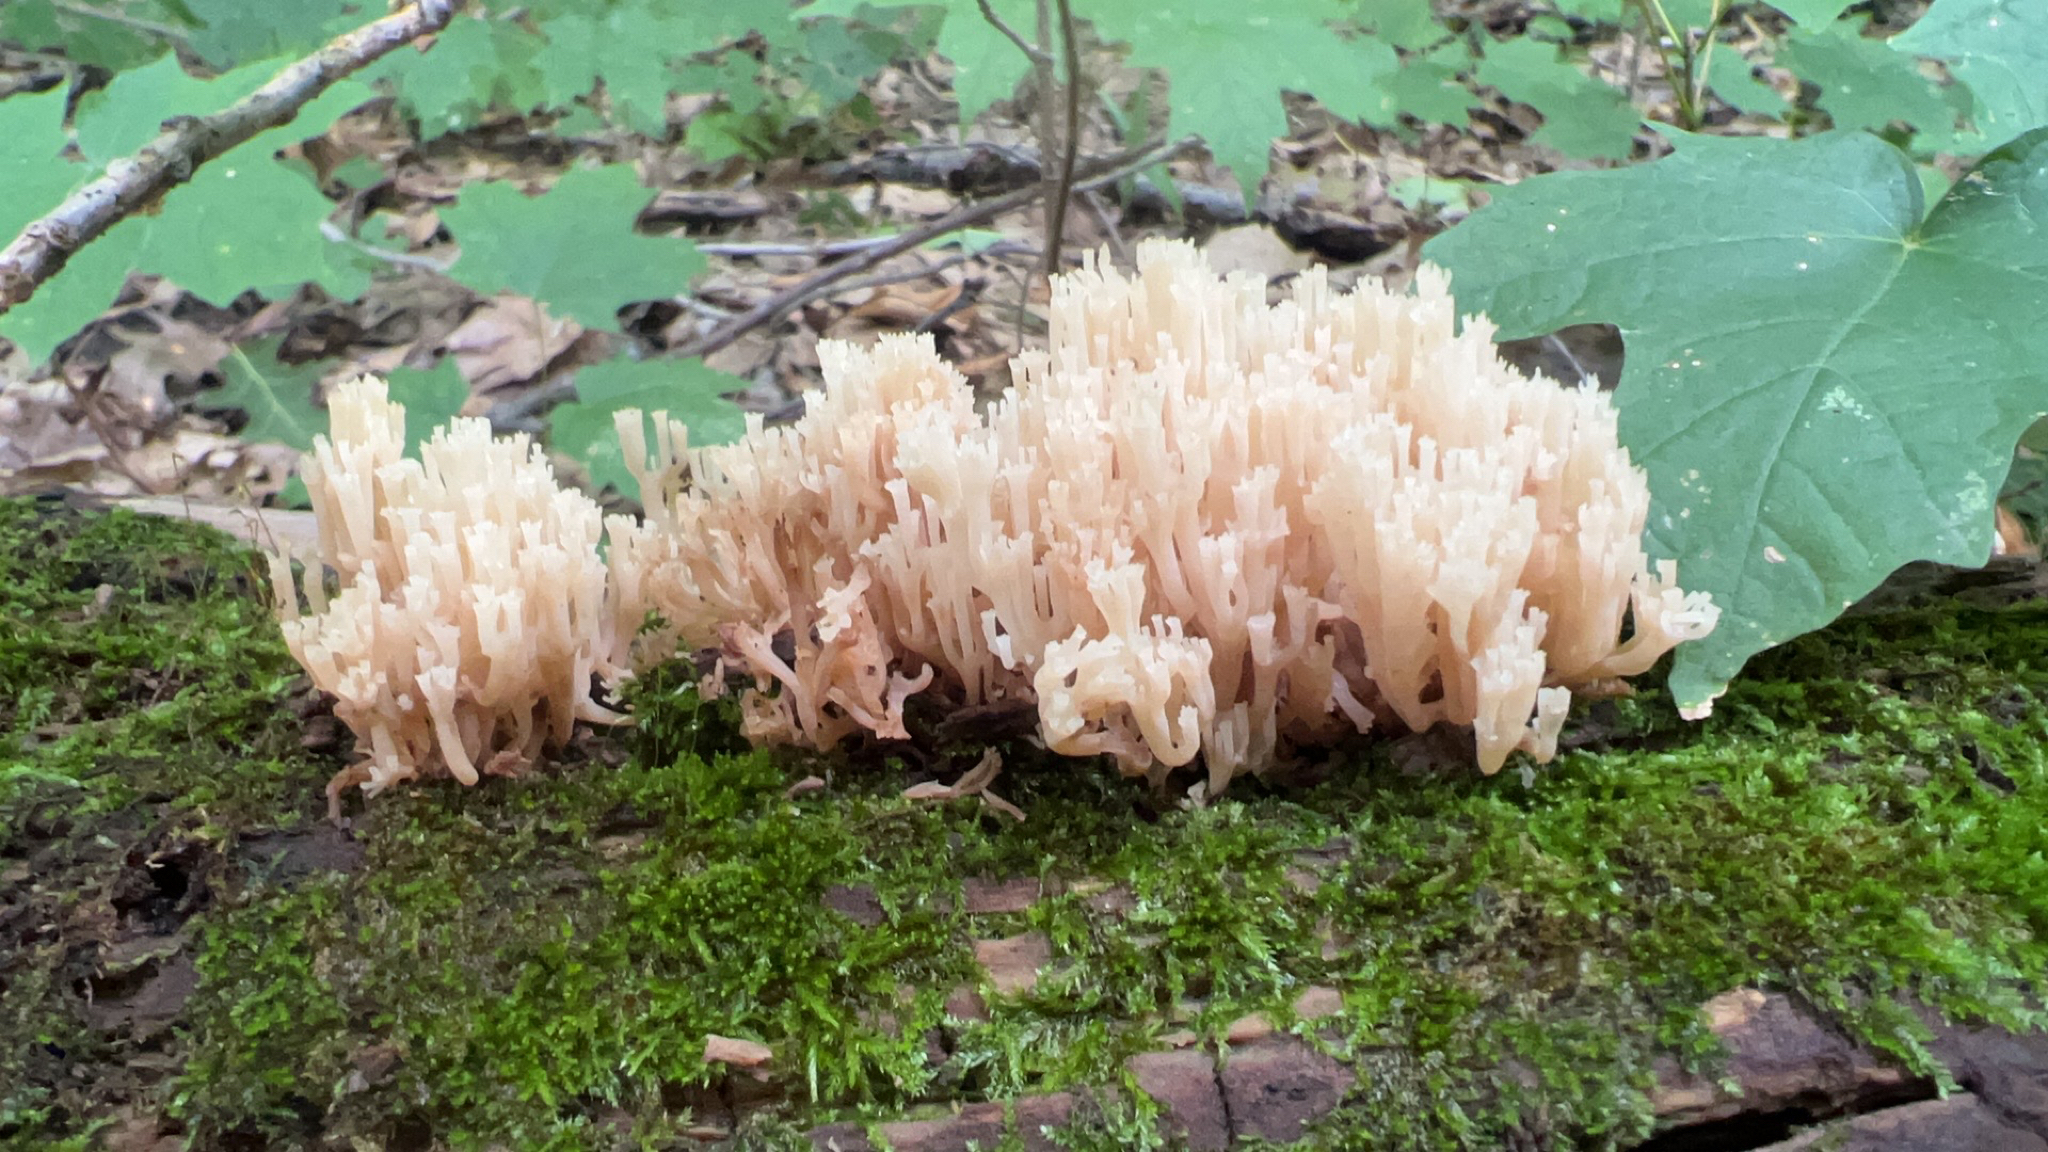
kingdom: Fungi
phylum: Basidiomycota
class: Agaricomycetes
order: Russulales
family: Auriscalpiaceae
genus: Artomyces
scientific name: Artomyces pyxidatus
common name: Crown-tipped coral fungus
